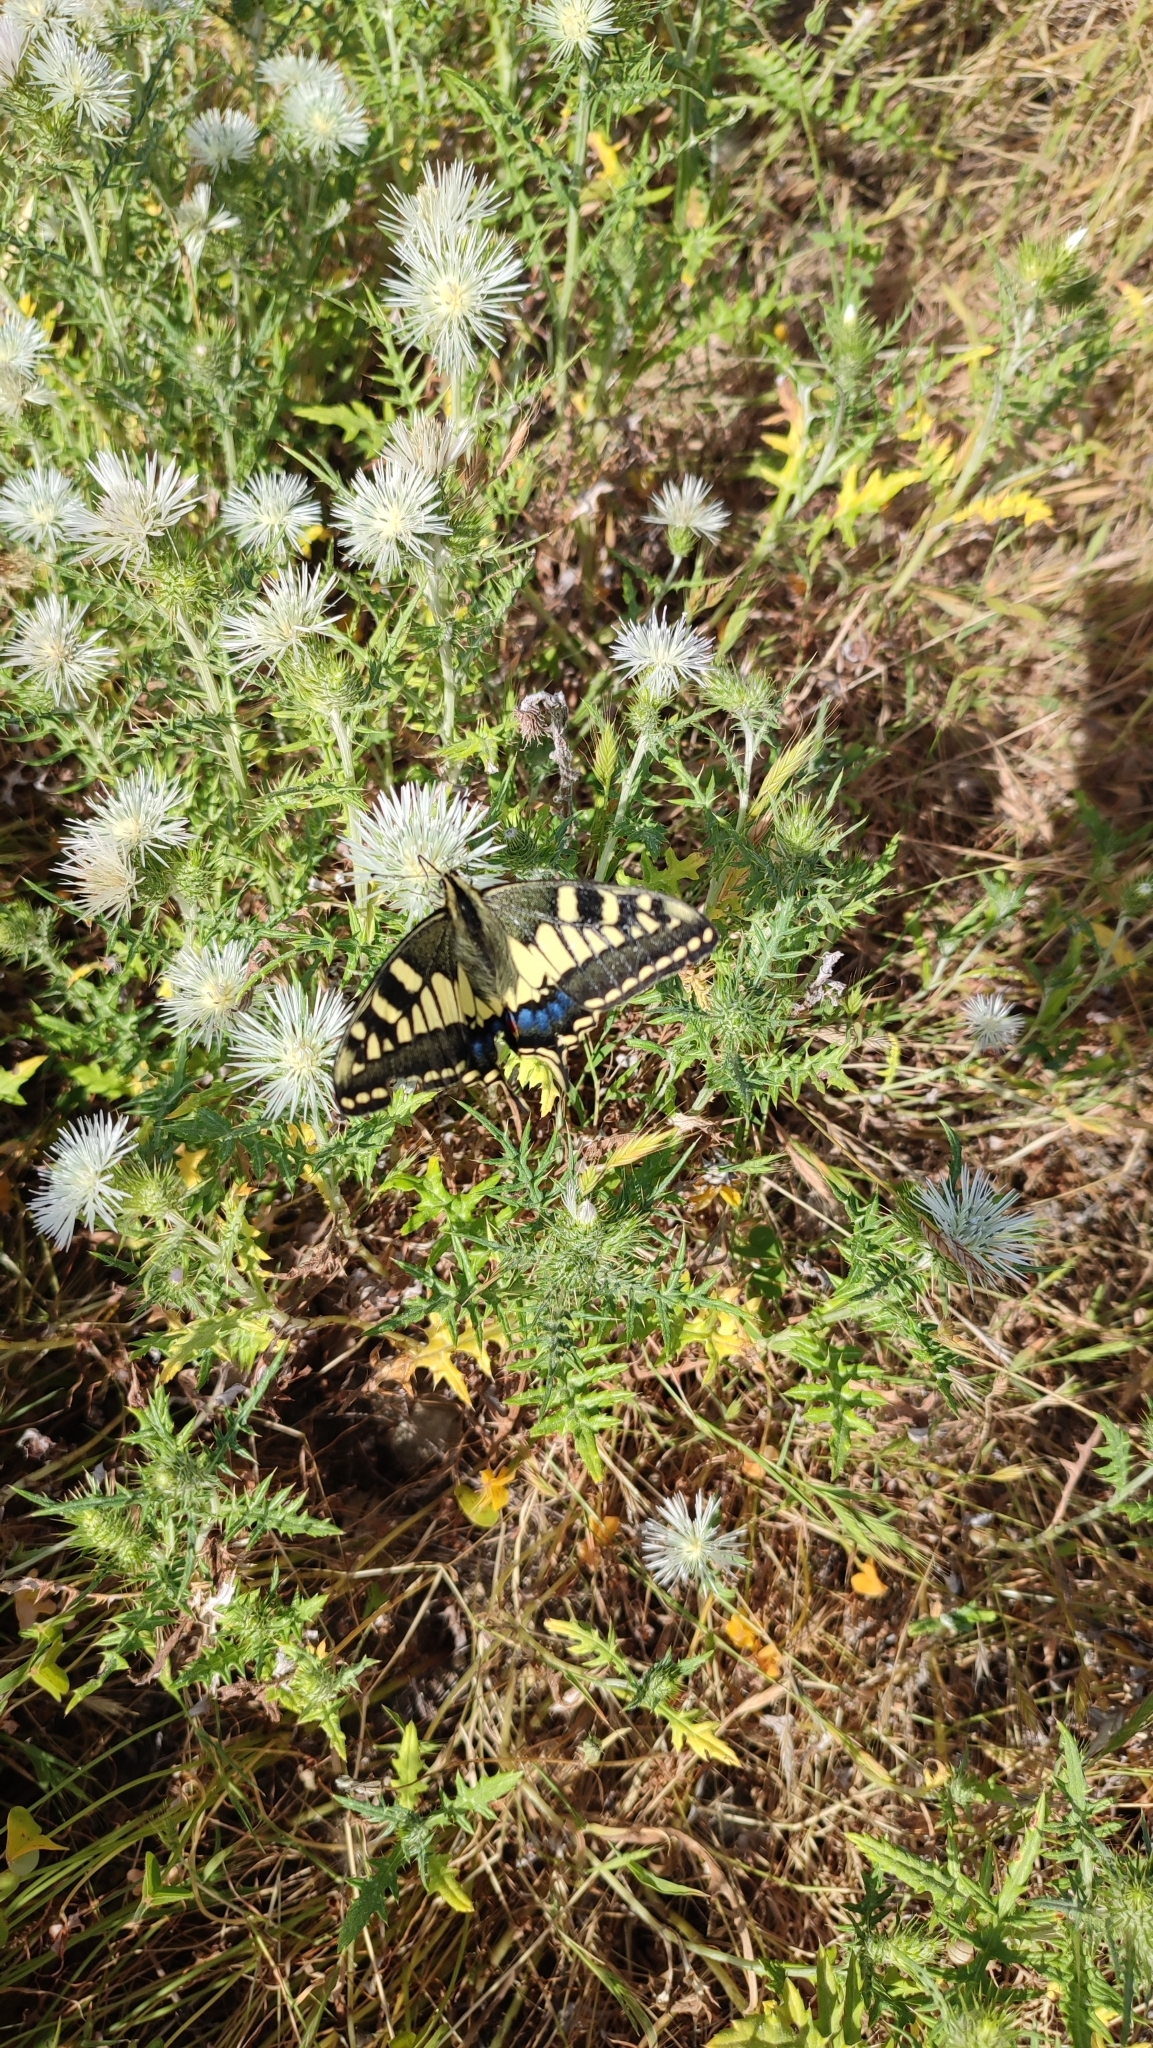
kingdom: Animalia
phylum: Arthropoda
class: Insecta
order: Lepidoptera
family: Papilionidae
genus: Papilio
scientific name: Papilio machaon
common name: Swallowtail
